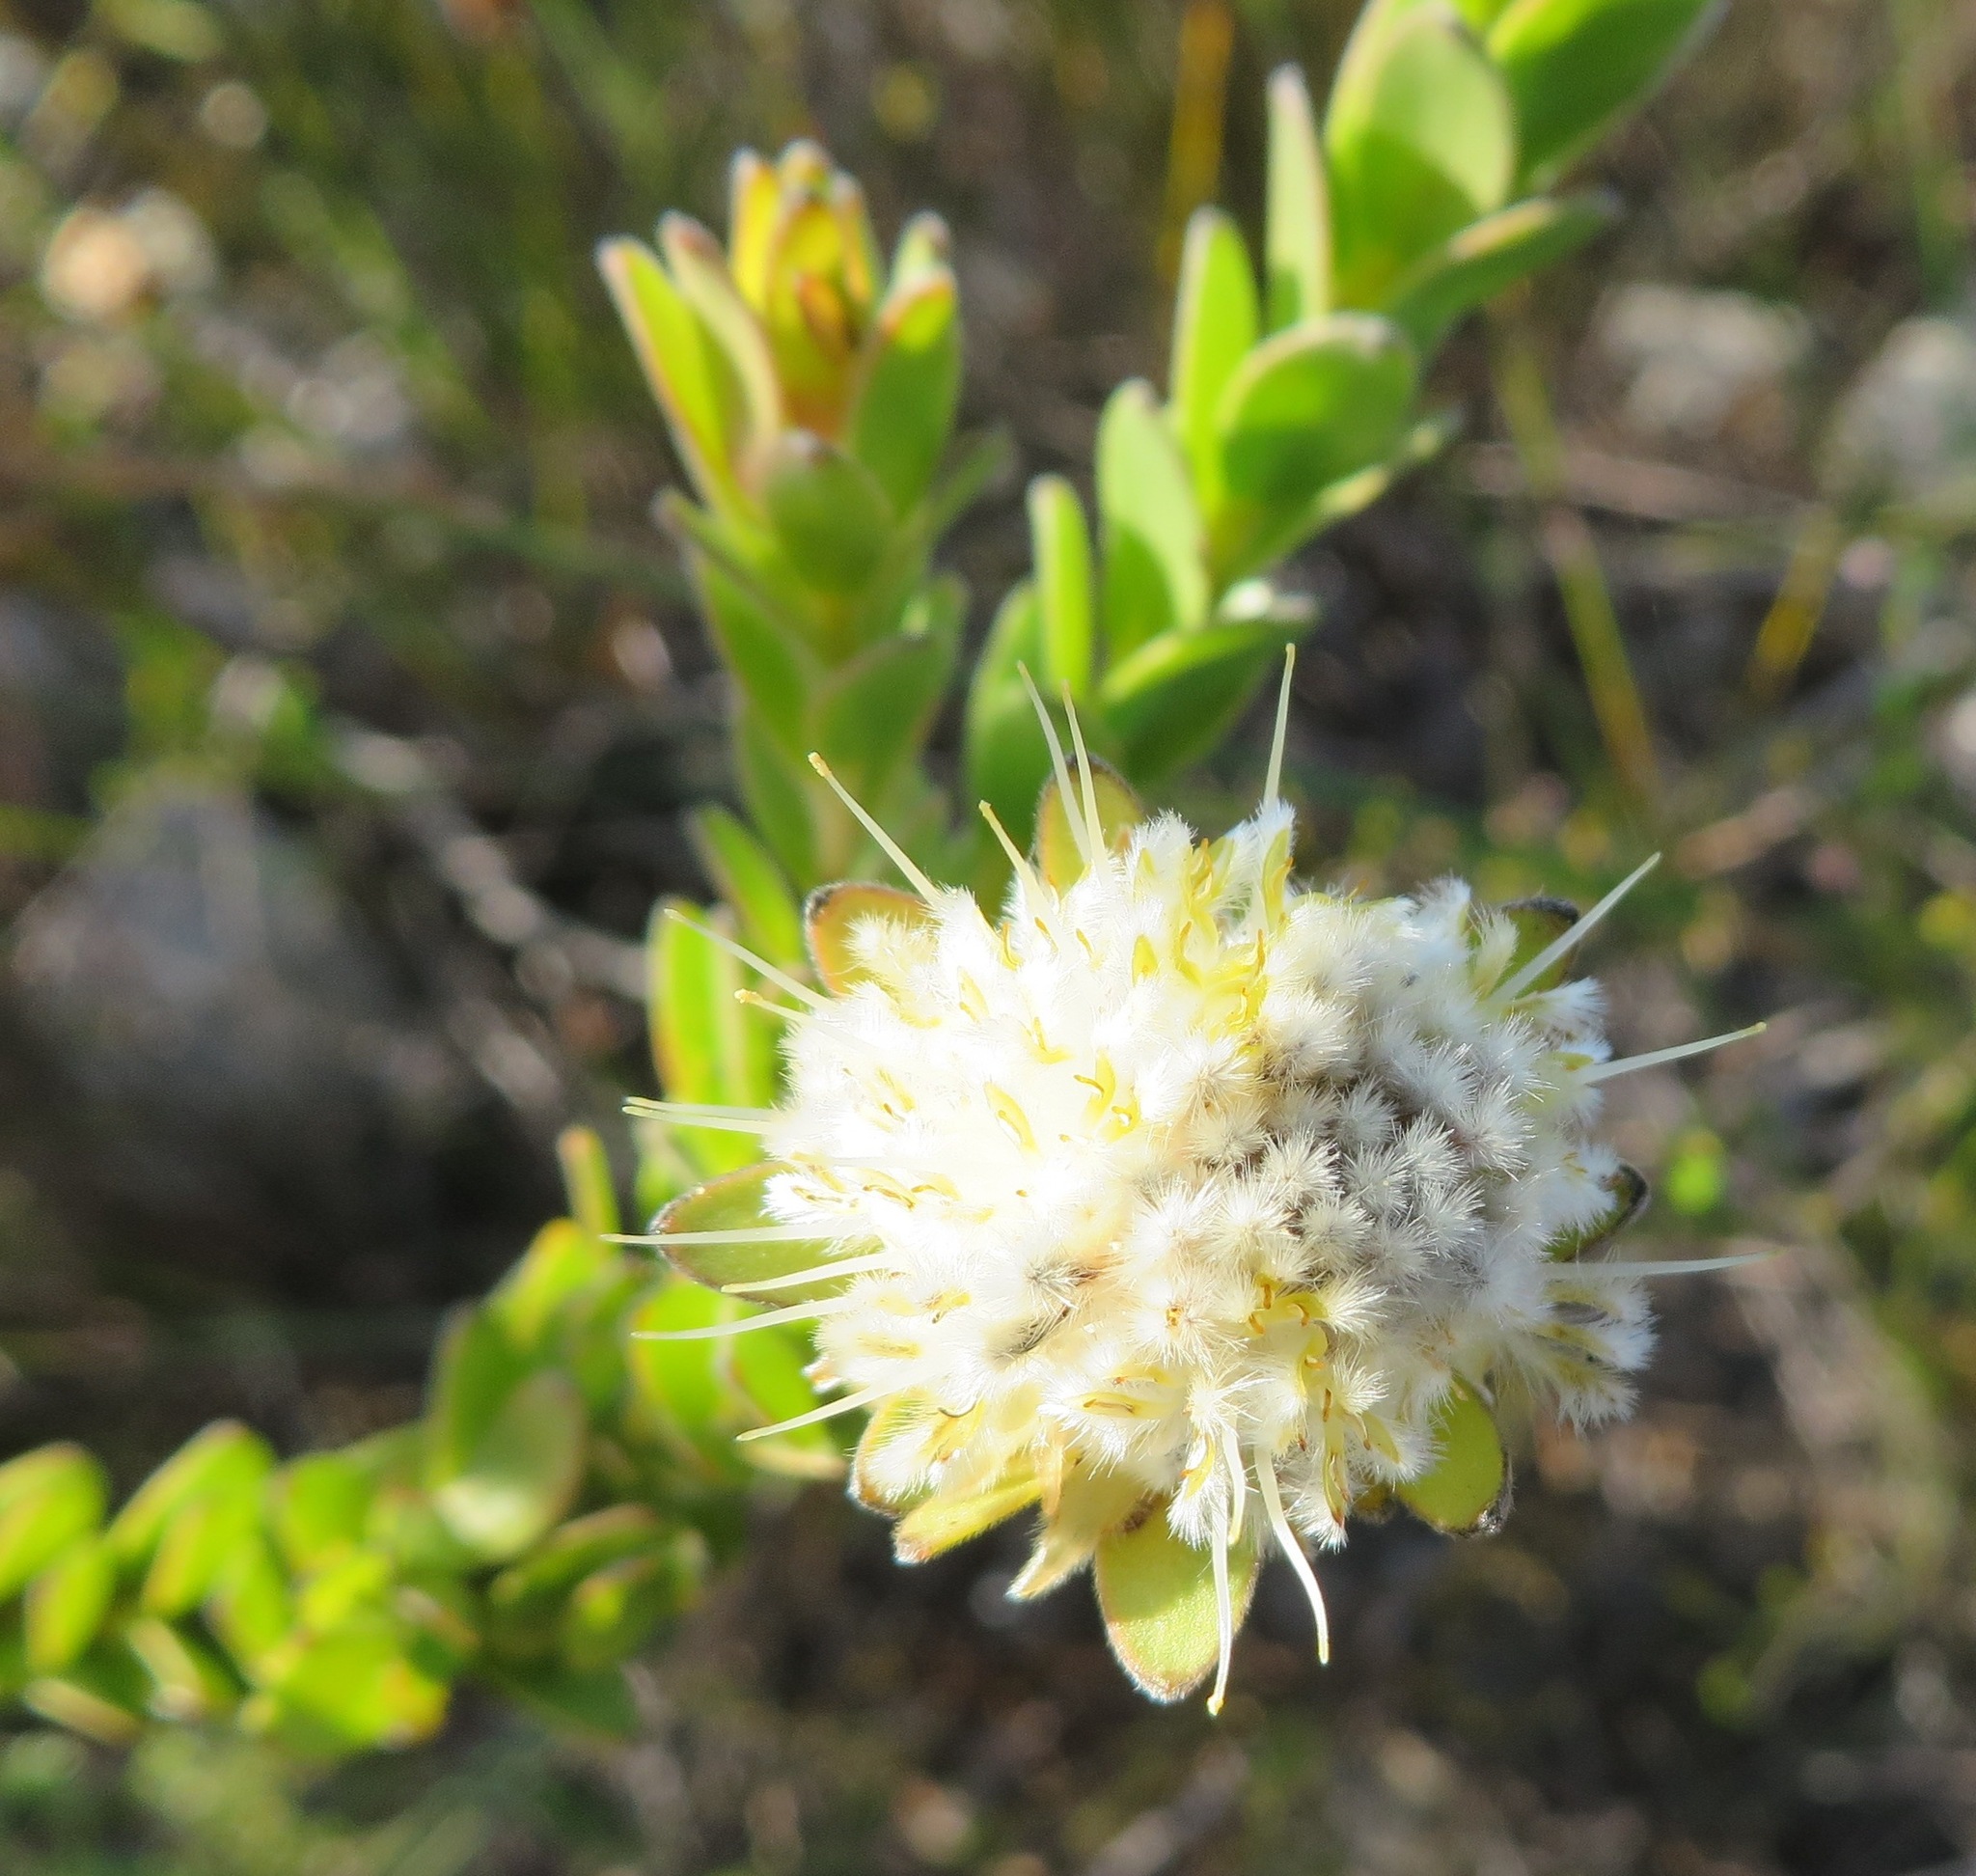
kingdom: Plantae
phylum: Tracheophyta
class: Magnoliopsida
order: Proteales
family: Proteaceae
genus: Diastella
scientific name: Diastella thymelaeoides
